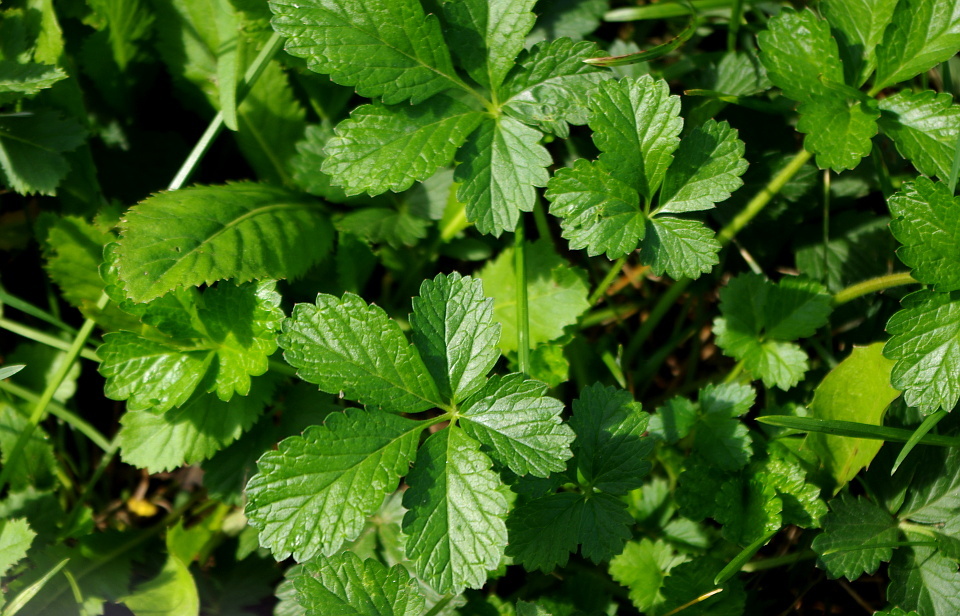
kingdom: Plantae
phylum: Tracheophyta
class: Magnoliopsida
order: Rosales
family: Rosaceae
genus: Potentilla
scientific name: Potentilla indica
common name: Yellow-flowered strawberry
